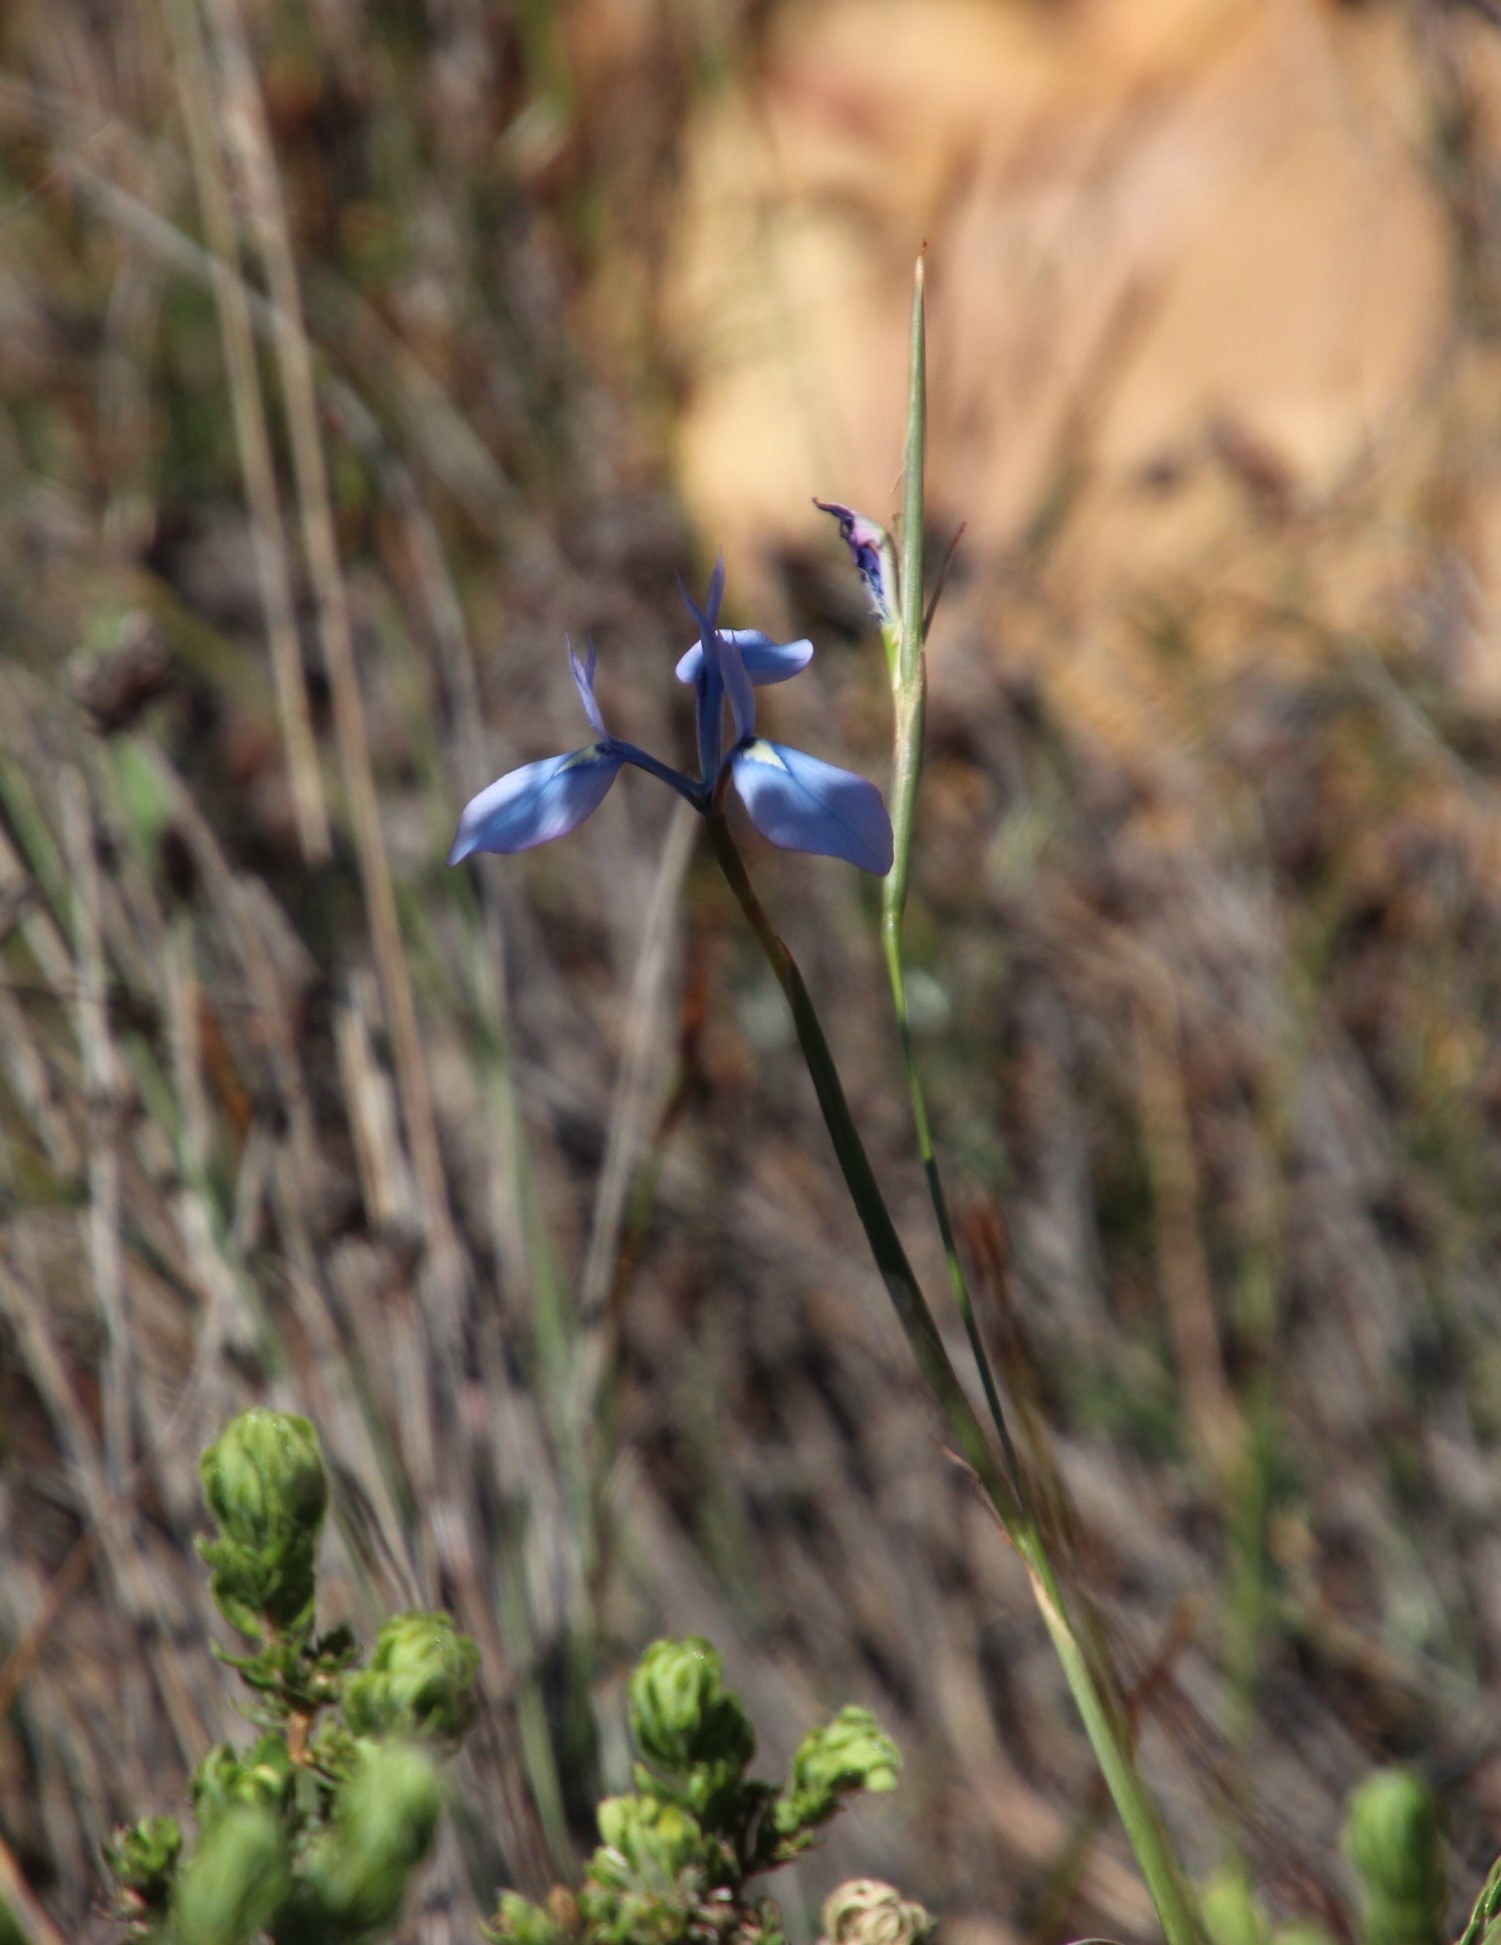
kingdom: Plantae
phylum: Tracheophyta
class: Liliopsida
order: Asparagales
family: Iridaceae
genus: Moraea
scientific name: Moraea tripetala
